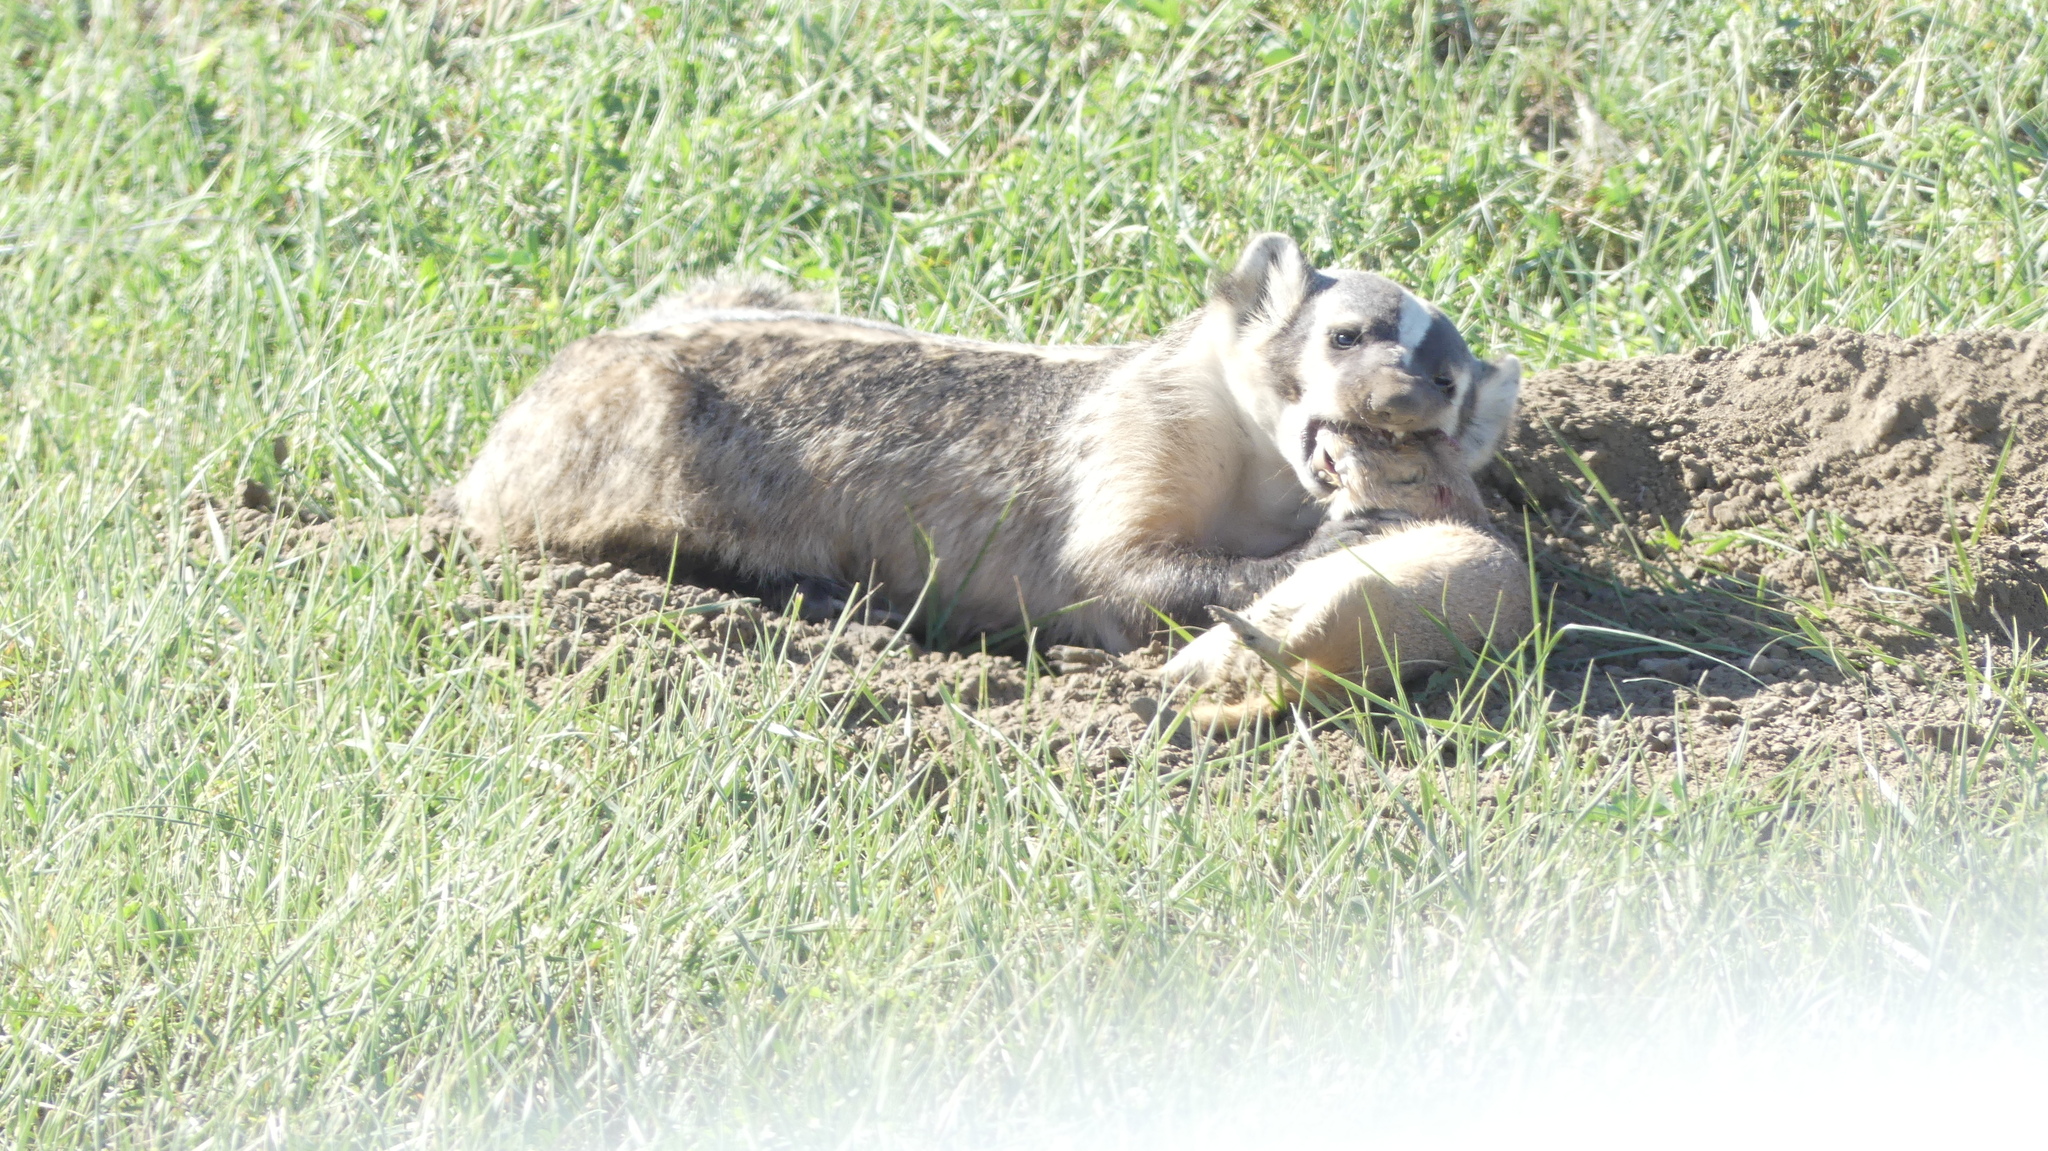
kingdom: Animalia
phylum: Chordata
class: Mammalia
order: Carnivora
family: Mustelidae
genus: Taxidea
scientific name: Taxidea taxus
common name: American badger
